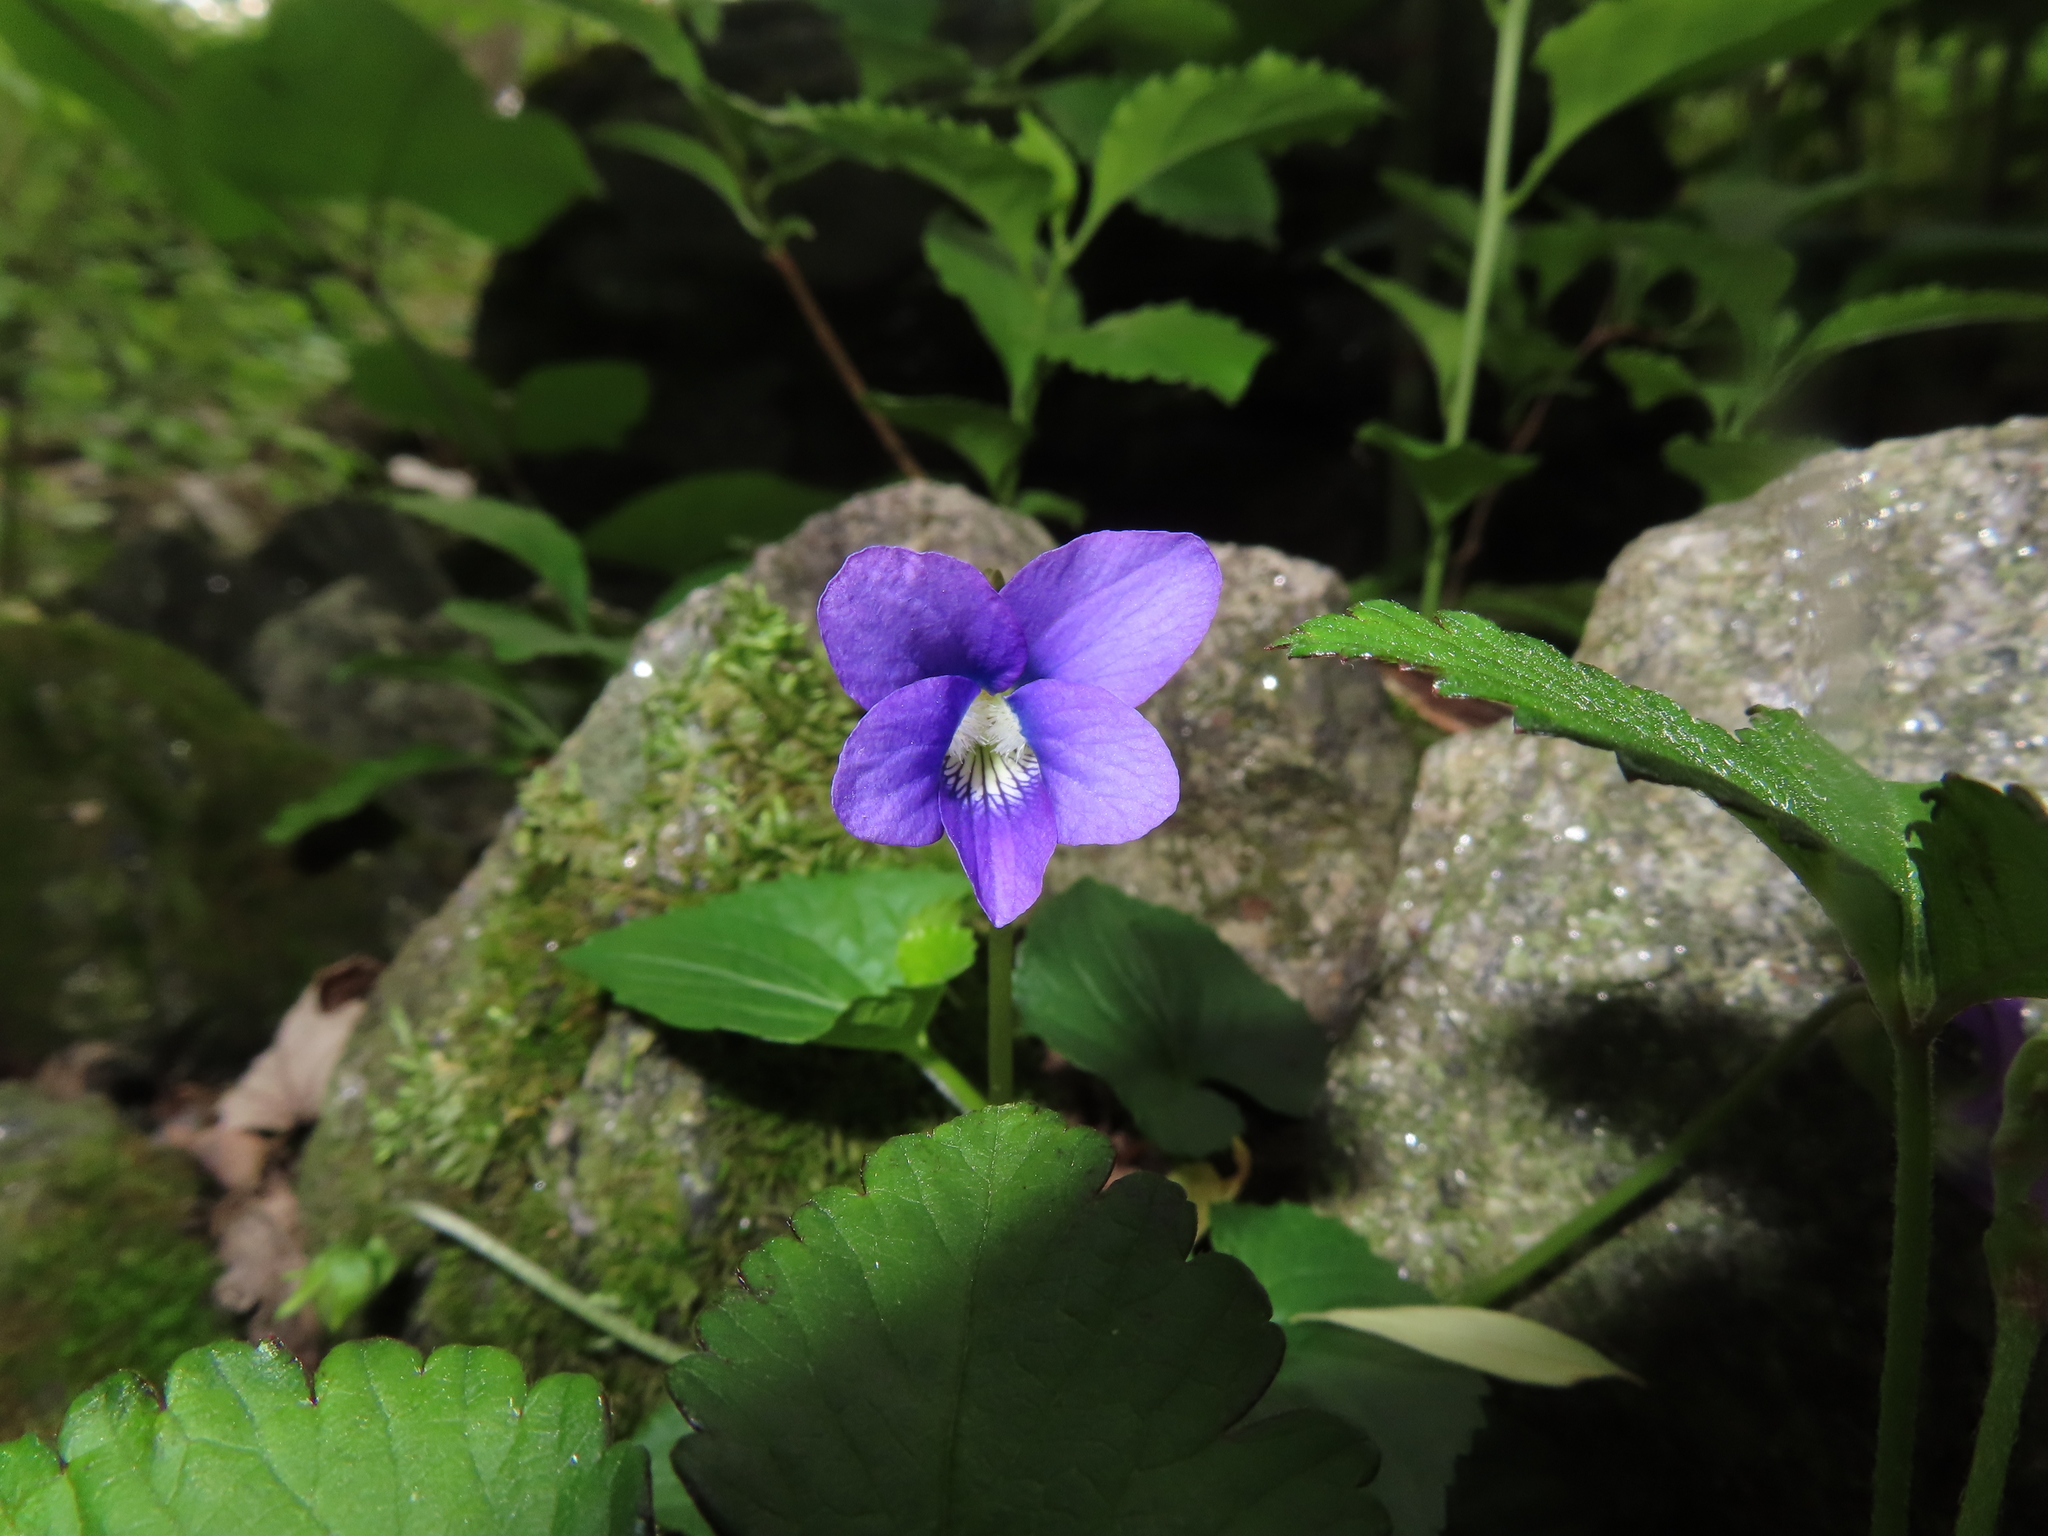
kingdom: Plantae
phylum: Tracheophyta
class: Magnoliopsida
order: Malpighiales
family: Violaceae
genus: Viola
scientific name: Viola sororia
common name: Dooryard violet
